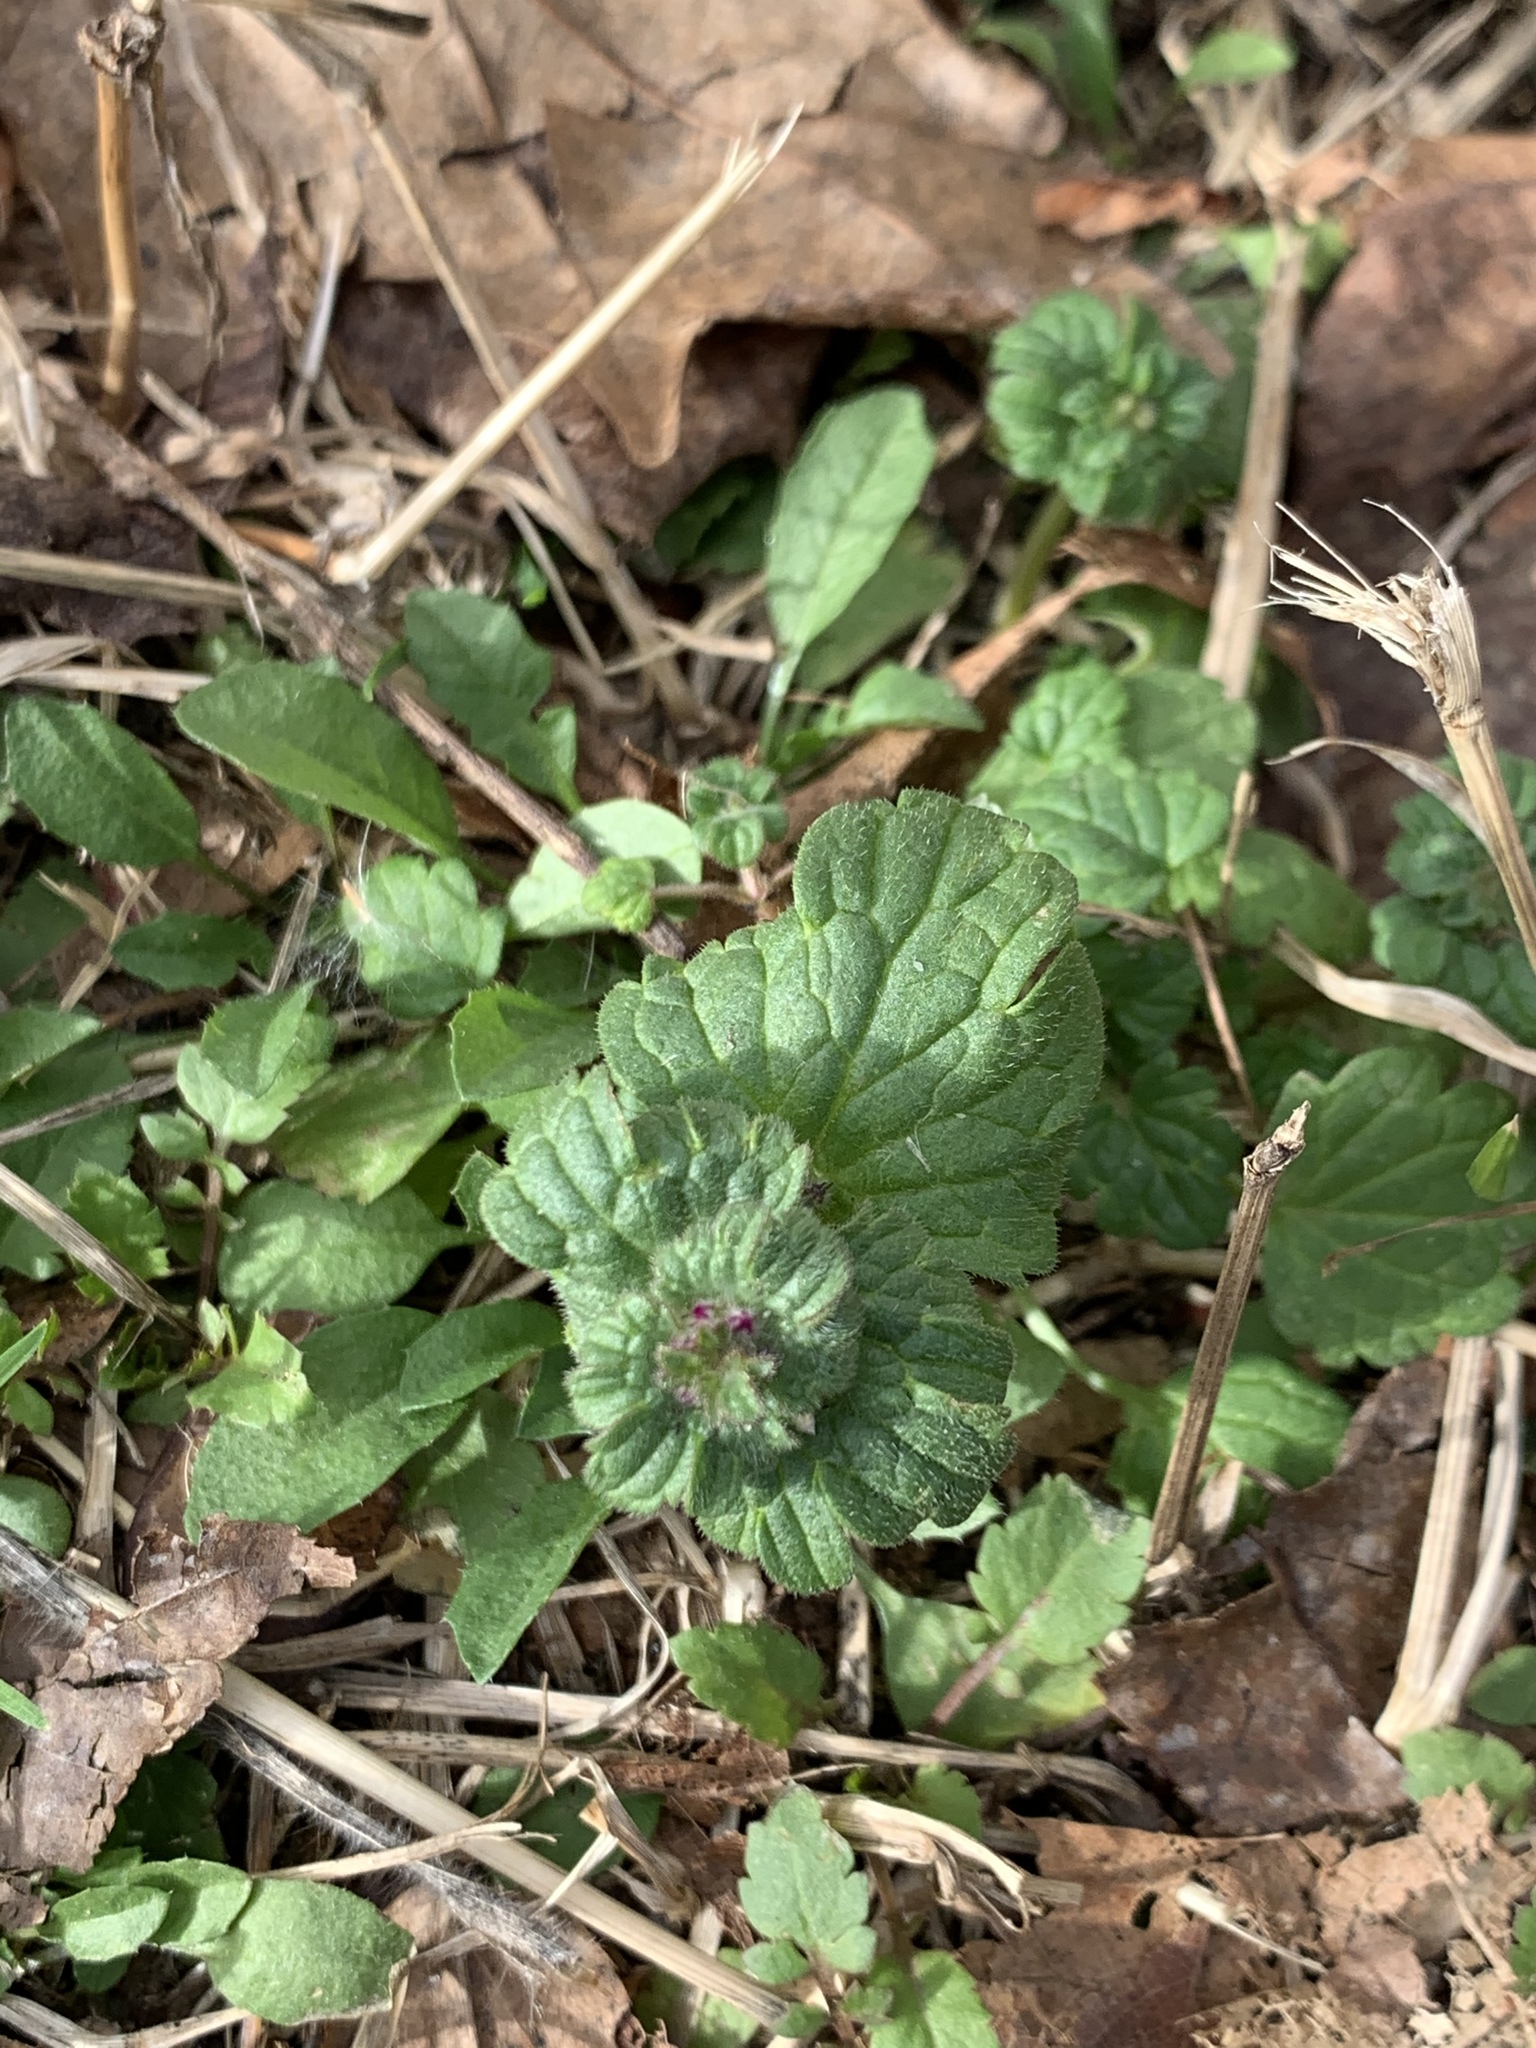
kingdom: Plantae
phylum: Tracheophyta
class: Magnoliopsida
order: Lamiales
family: Lamiaceae
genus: Lamium
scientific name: Lamium amplexicaule
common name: Henbit dead-nettle
